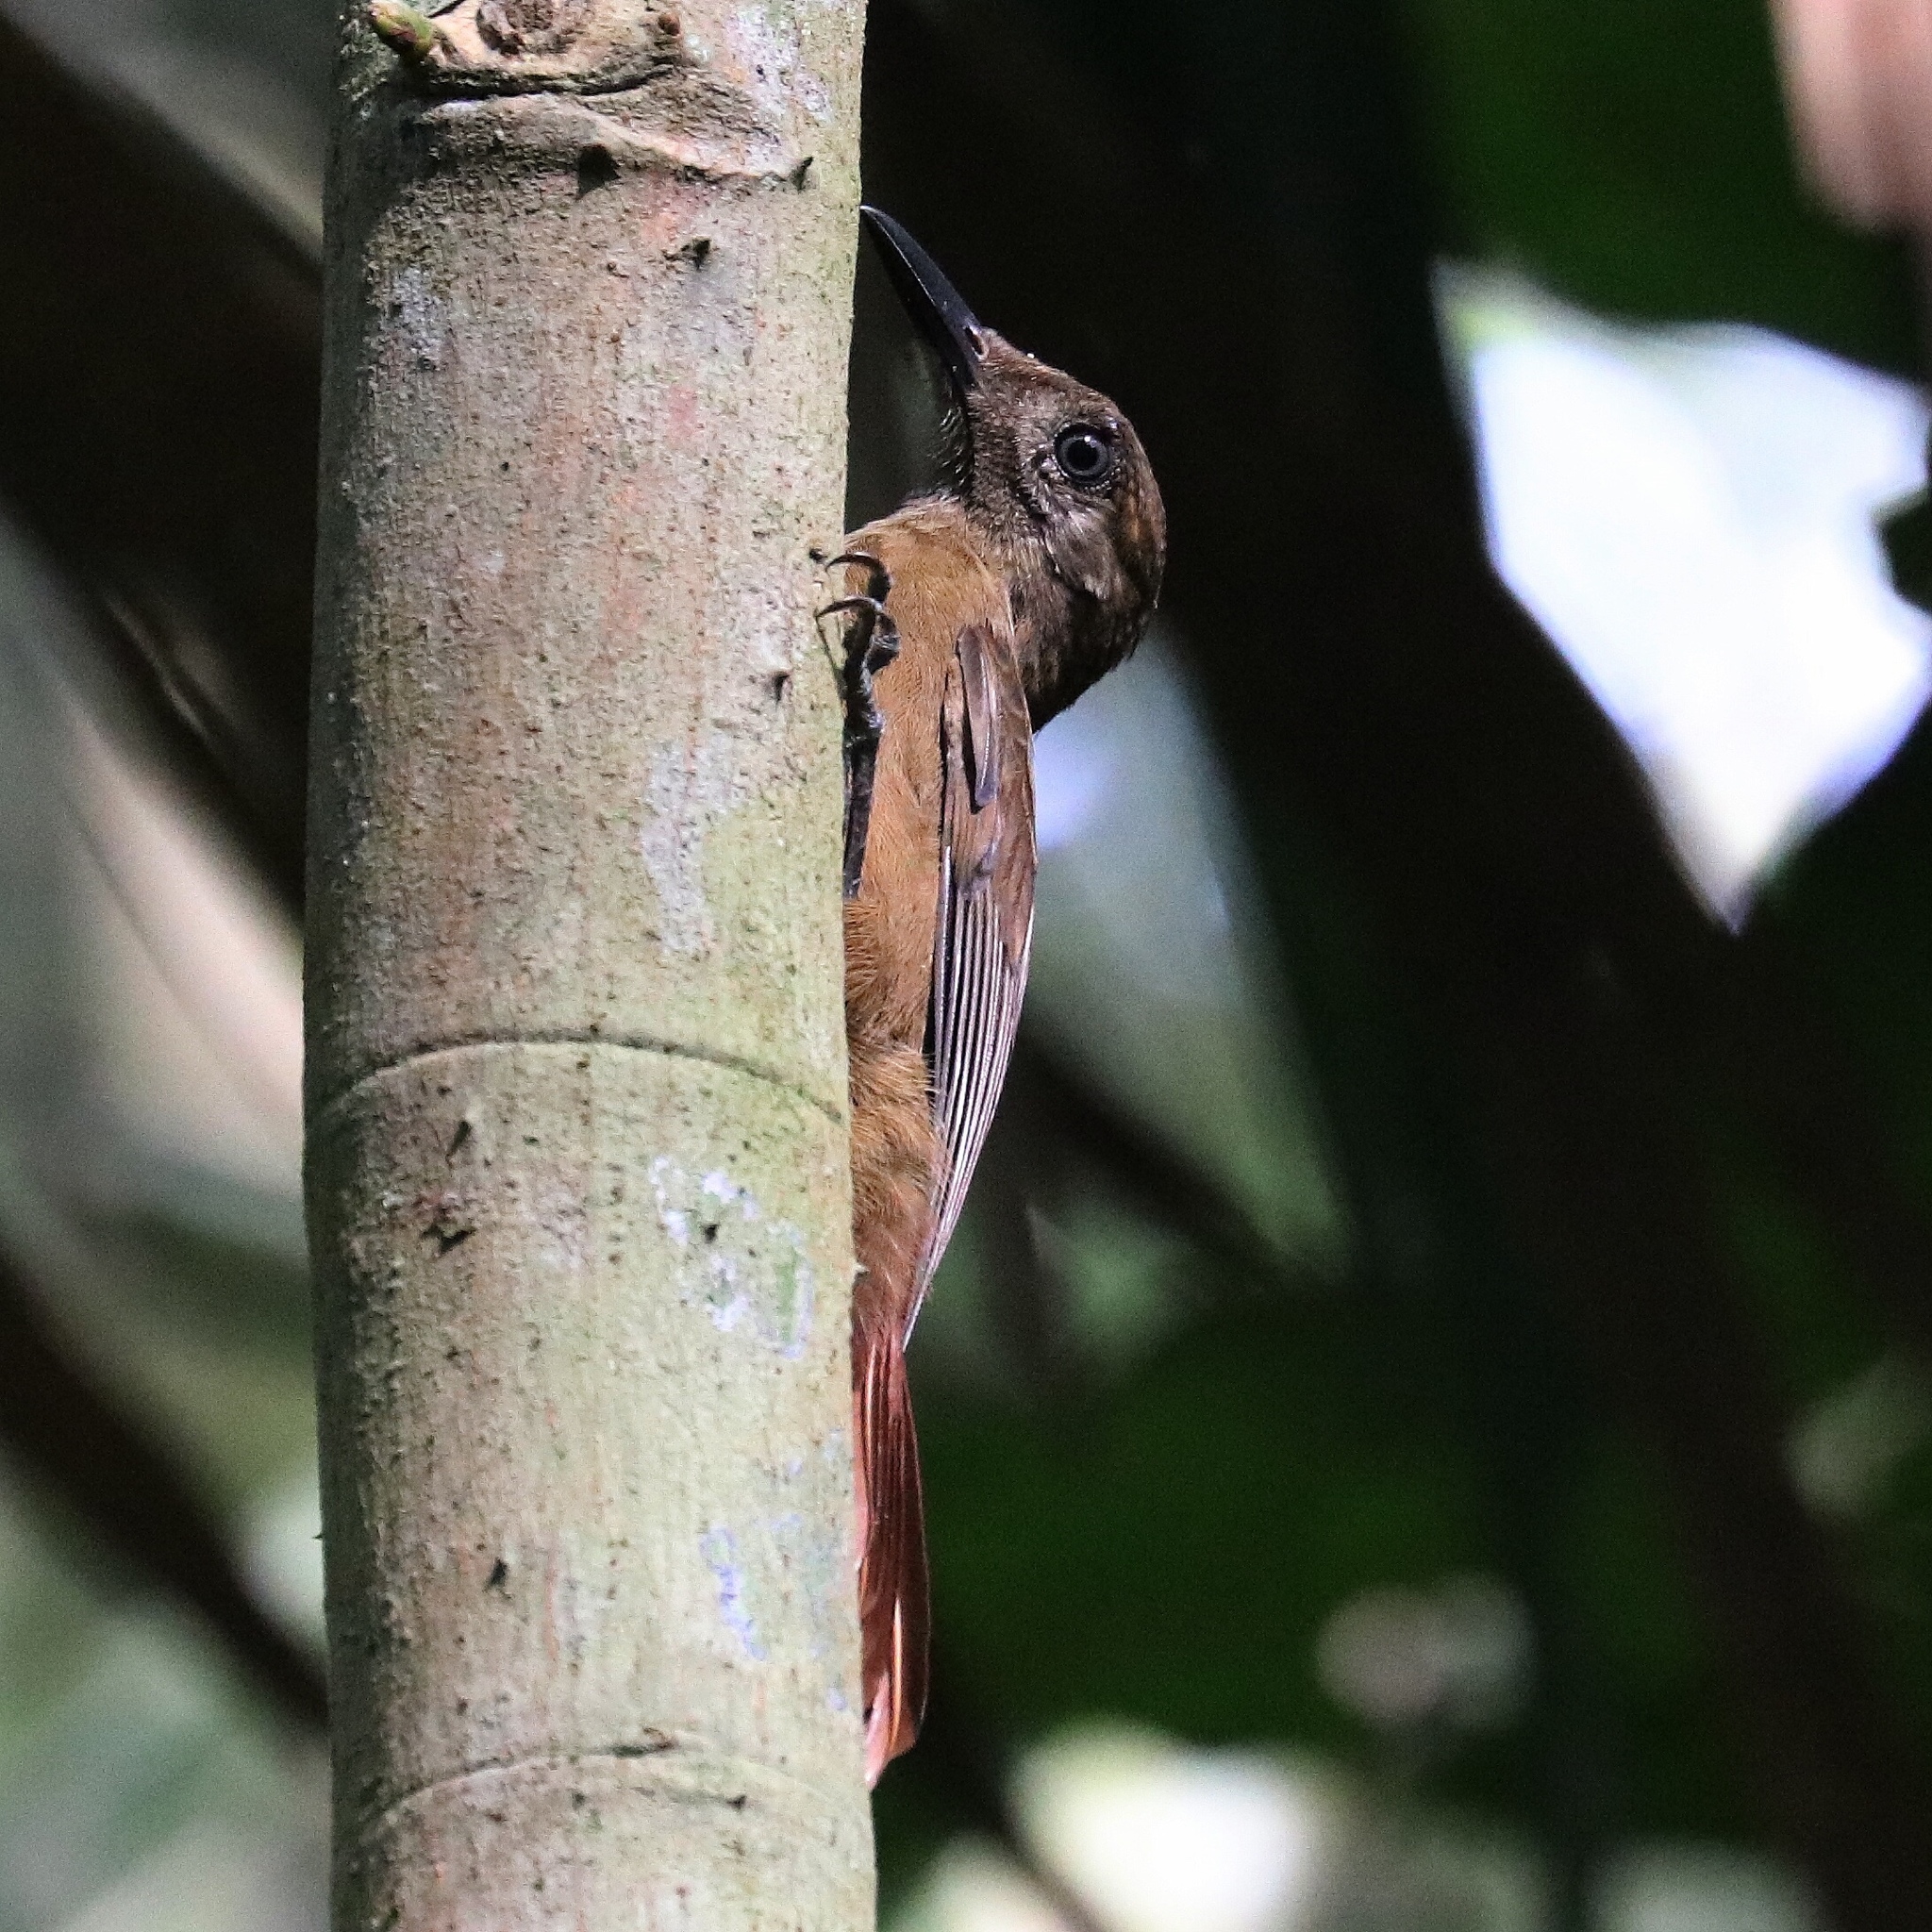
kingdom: Animalia
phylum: Chordata
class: Aves
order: Passeriformes
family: Furnariidae
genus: Dendrocincla
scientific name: Dendrocincla fuliginosa
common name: Plain-brown woodcreeper
